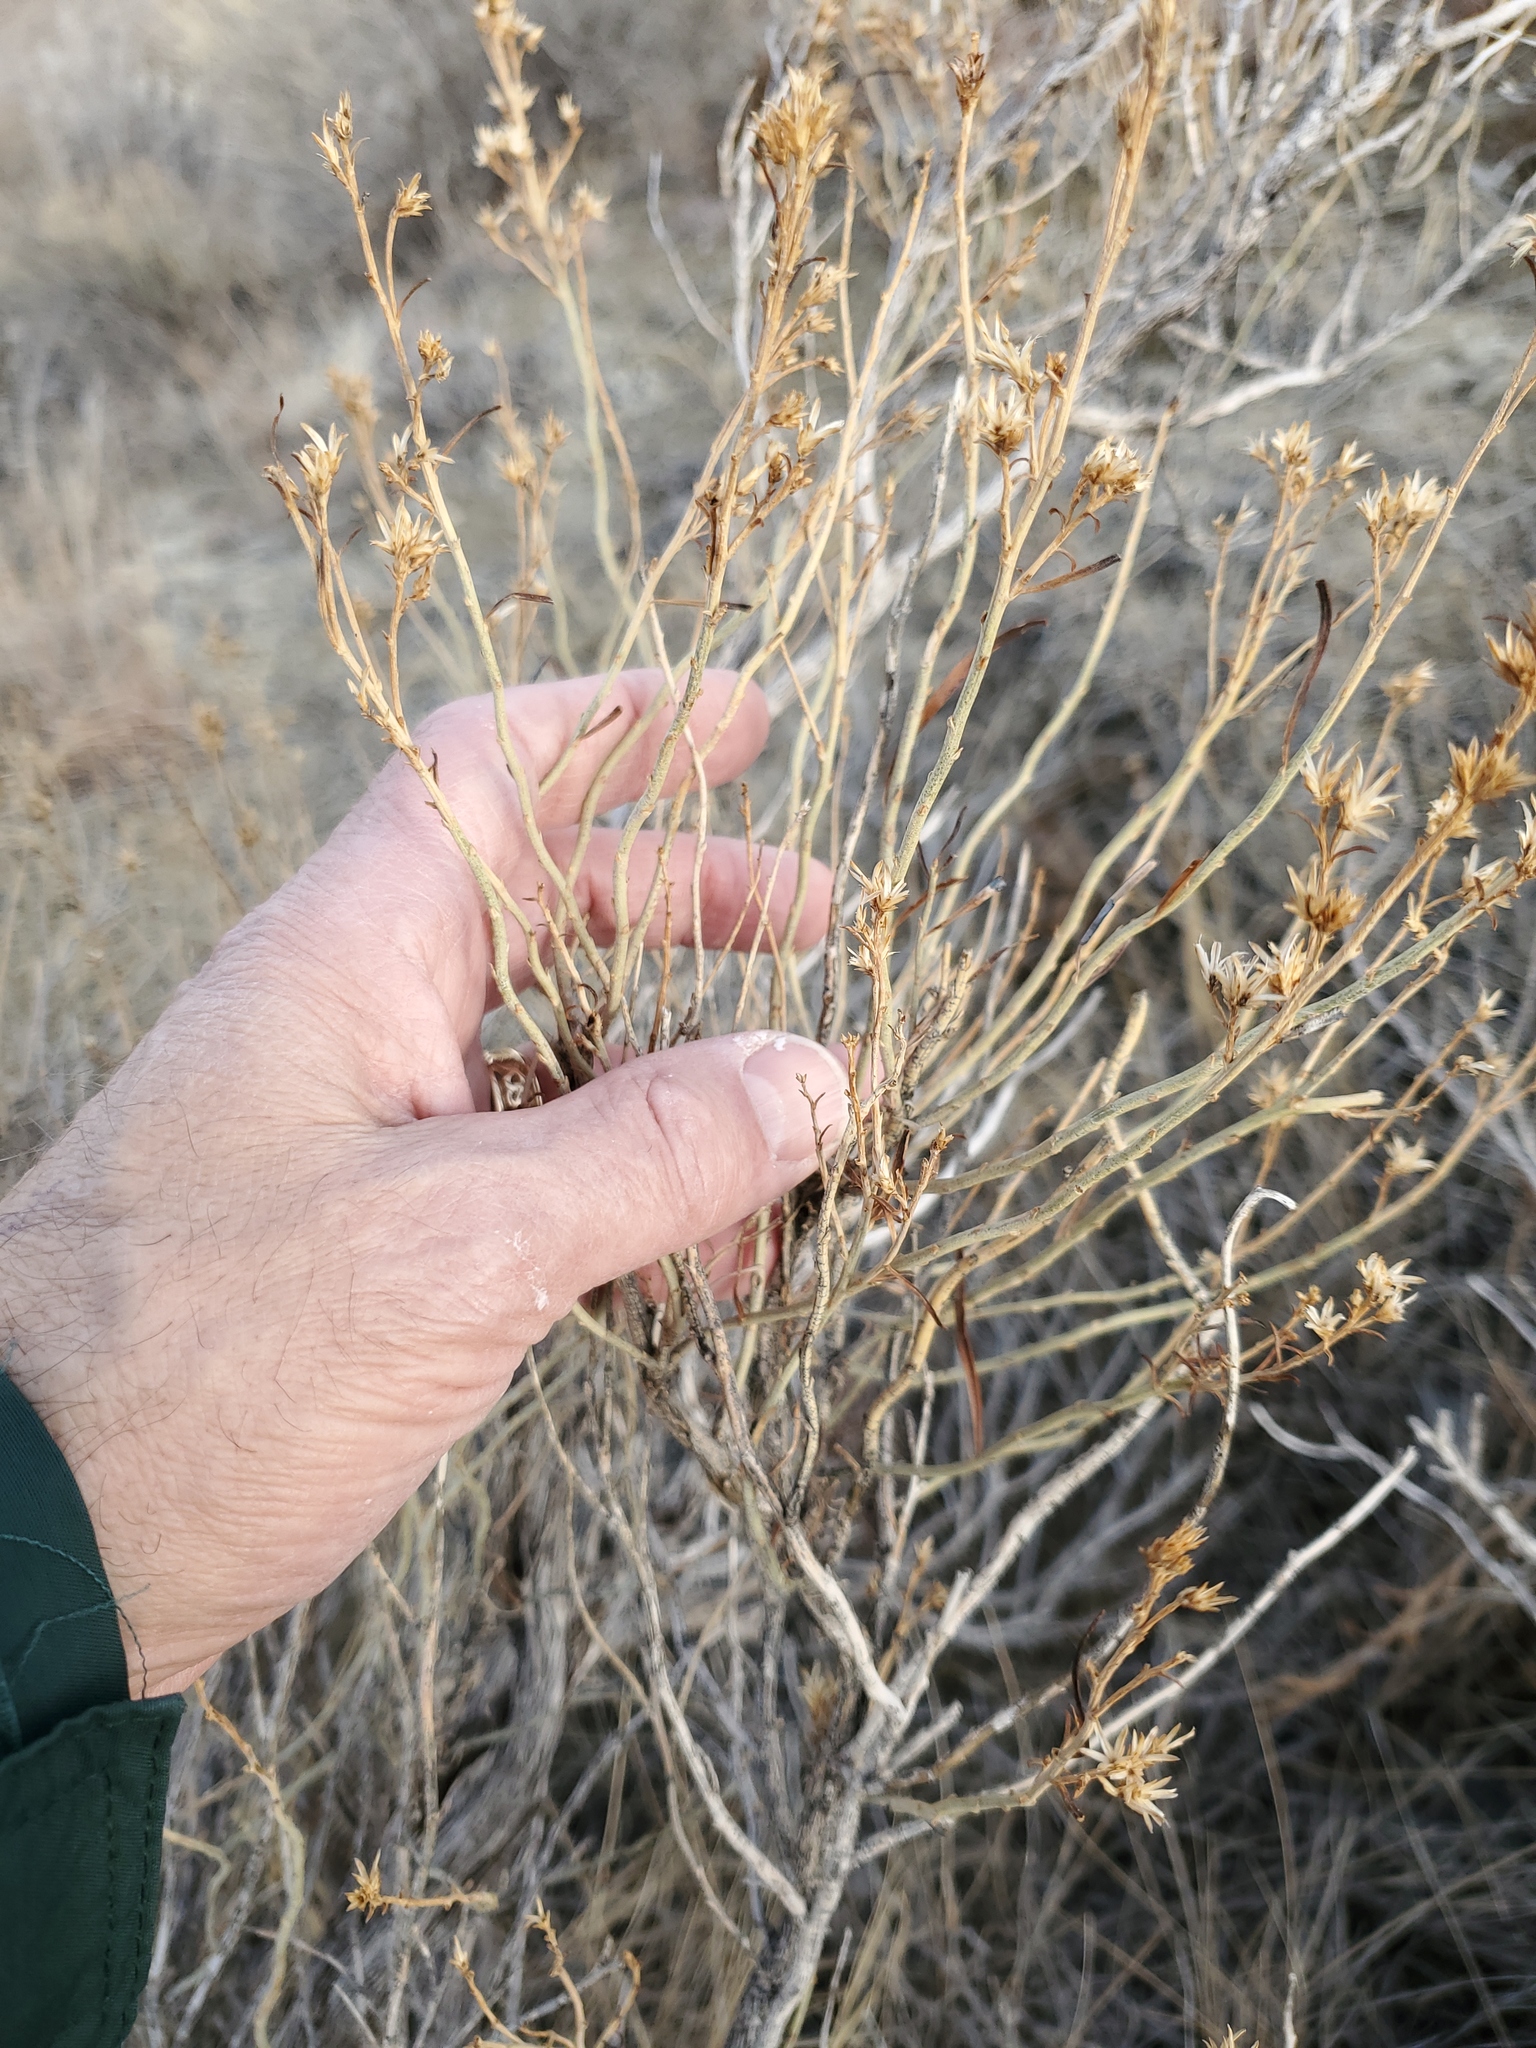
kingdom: Plantae
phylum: Tracheophyta
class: Magnoliopsida
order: Asterales
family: Asteraceae
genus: Ericameria
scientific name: Ericameria nauseosa
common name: Rubber rabbitbrush
